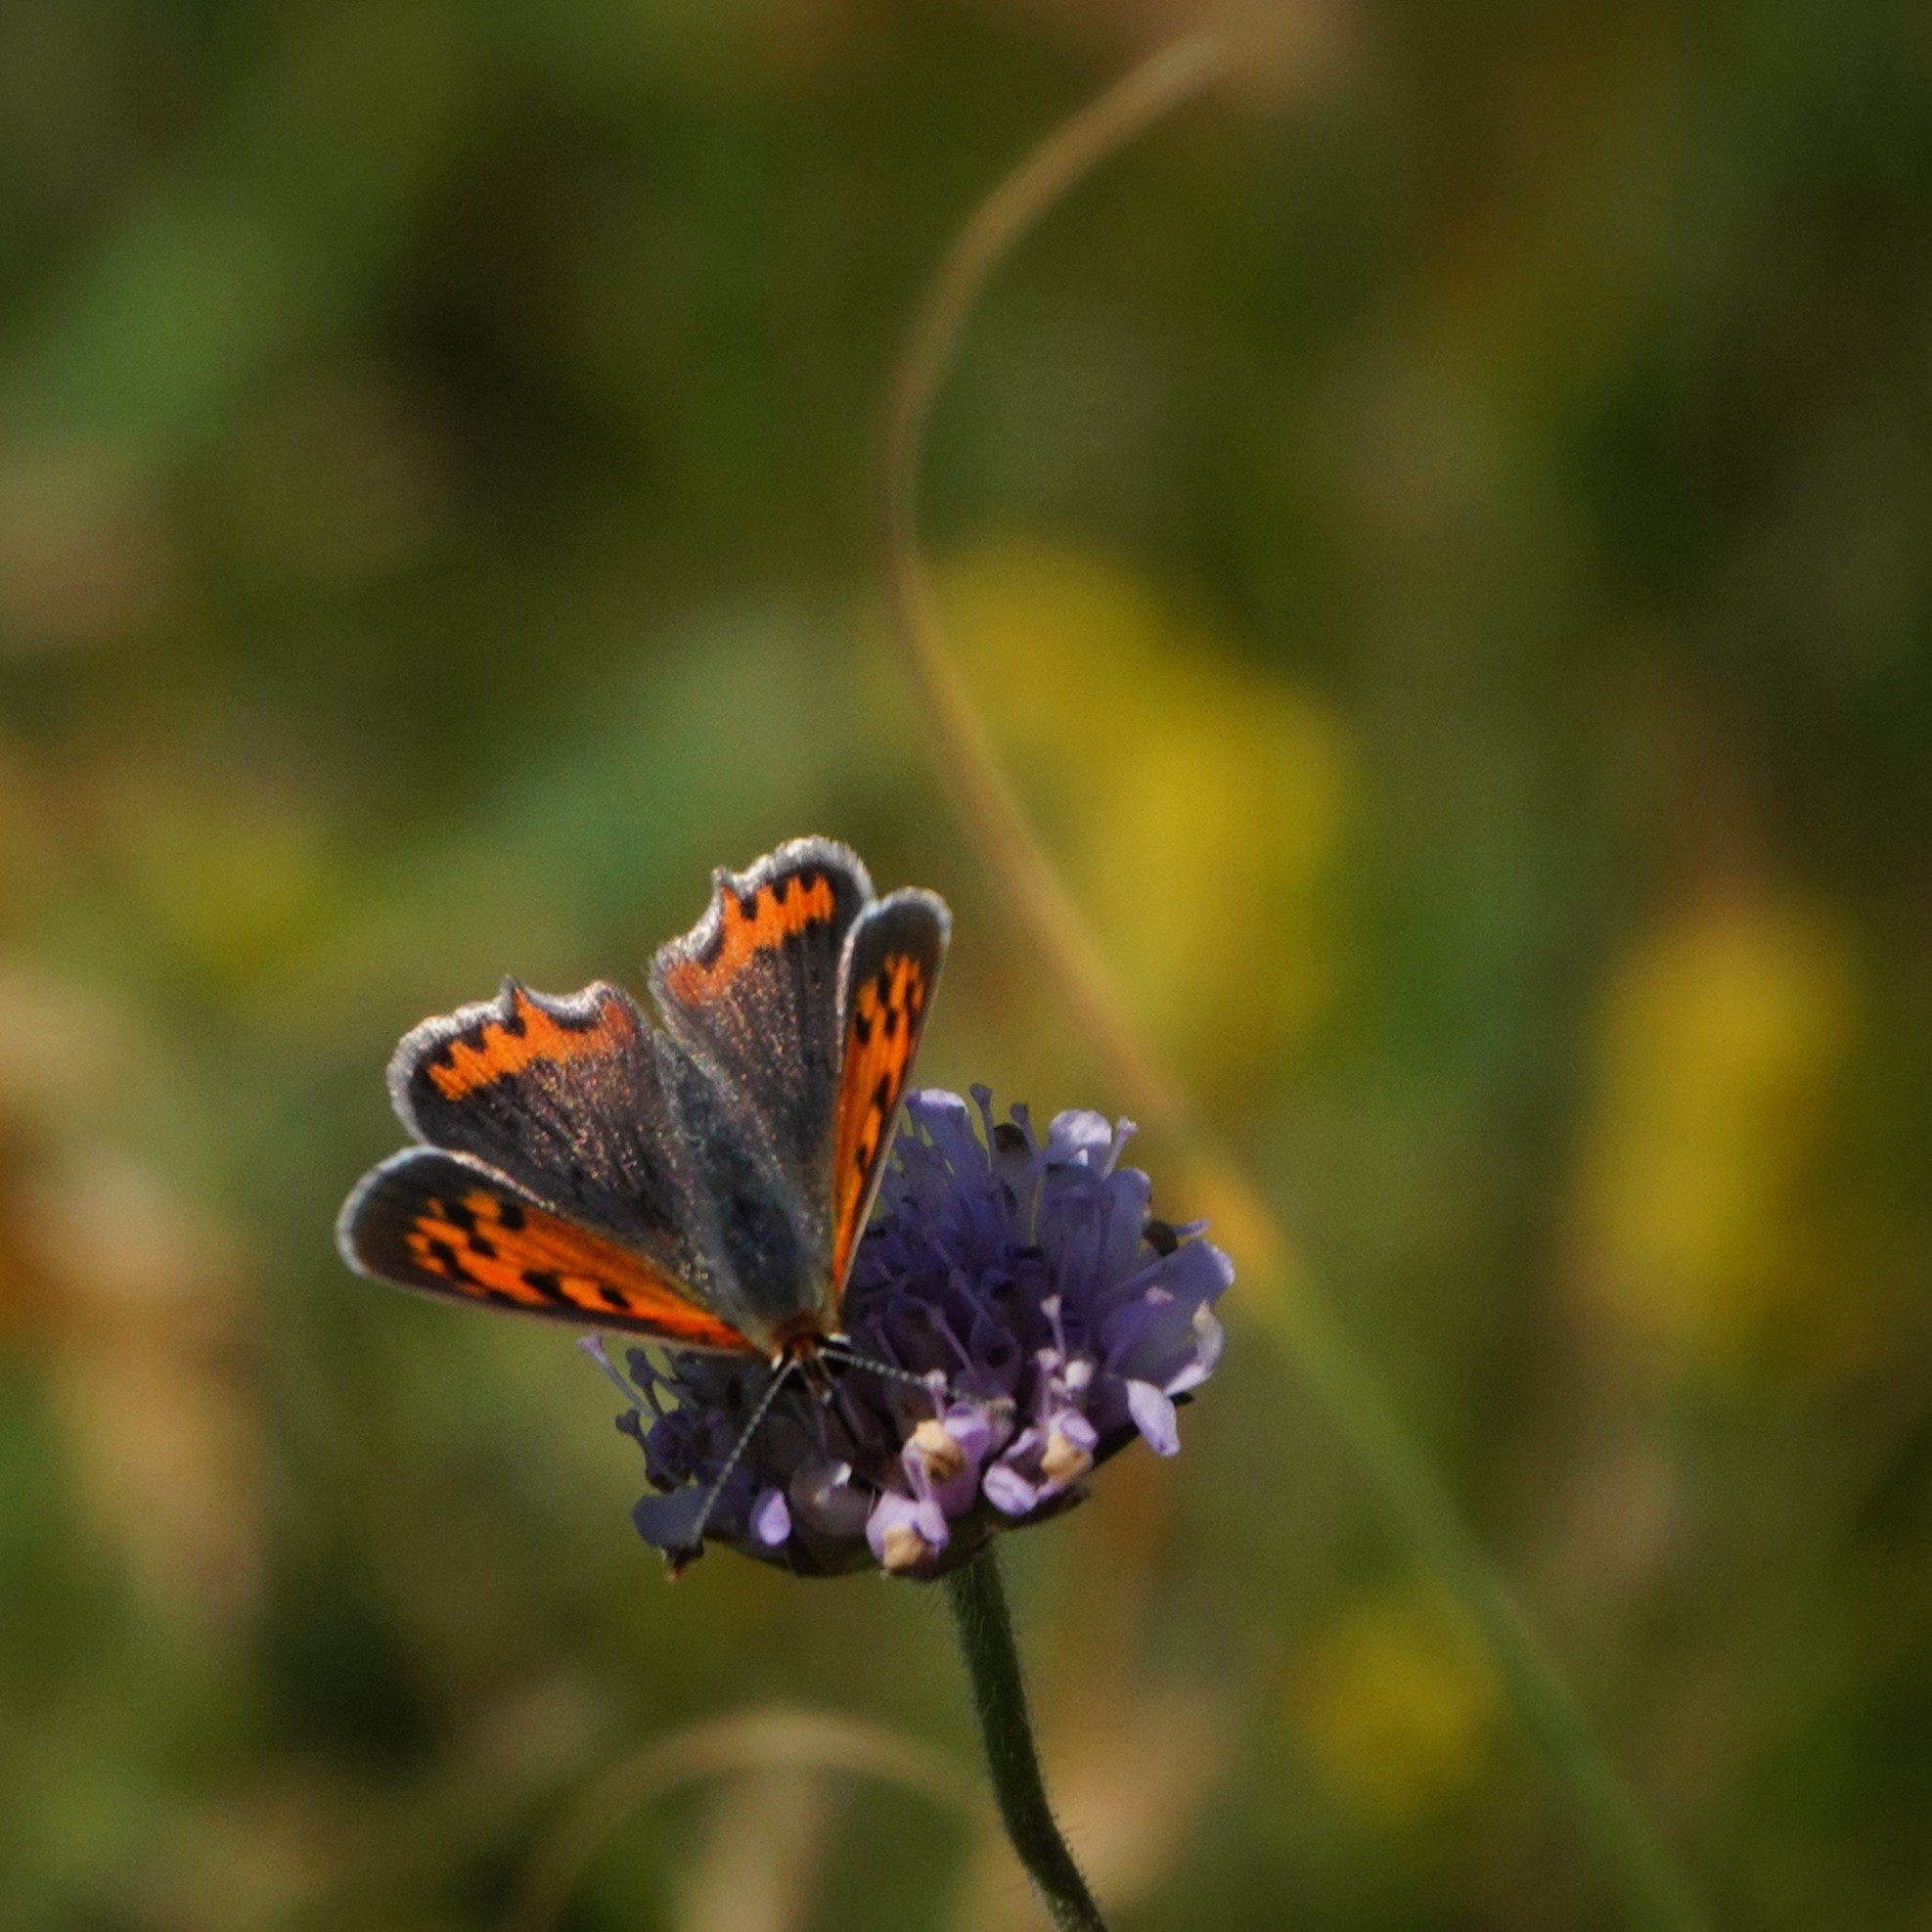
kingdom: Animalia
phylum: Arthropoda
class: Insecta
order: Lepidoptera
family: Lycaenidae
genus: Lycaena
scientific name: Lycaena phlaeas
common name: Small copper
